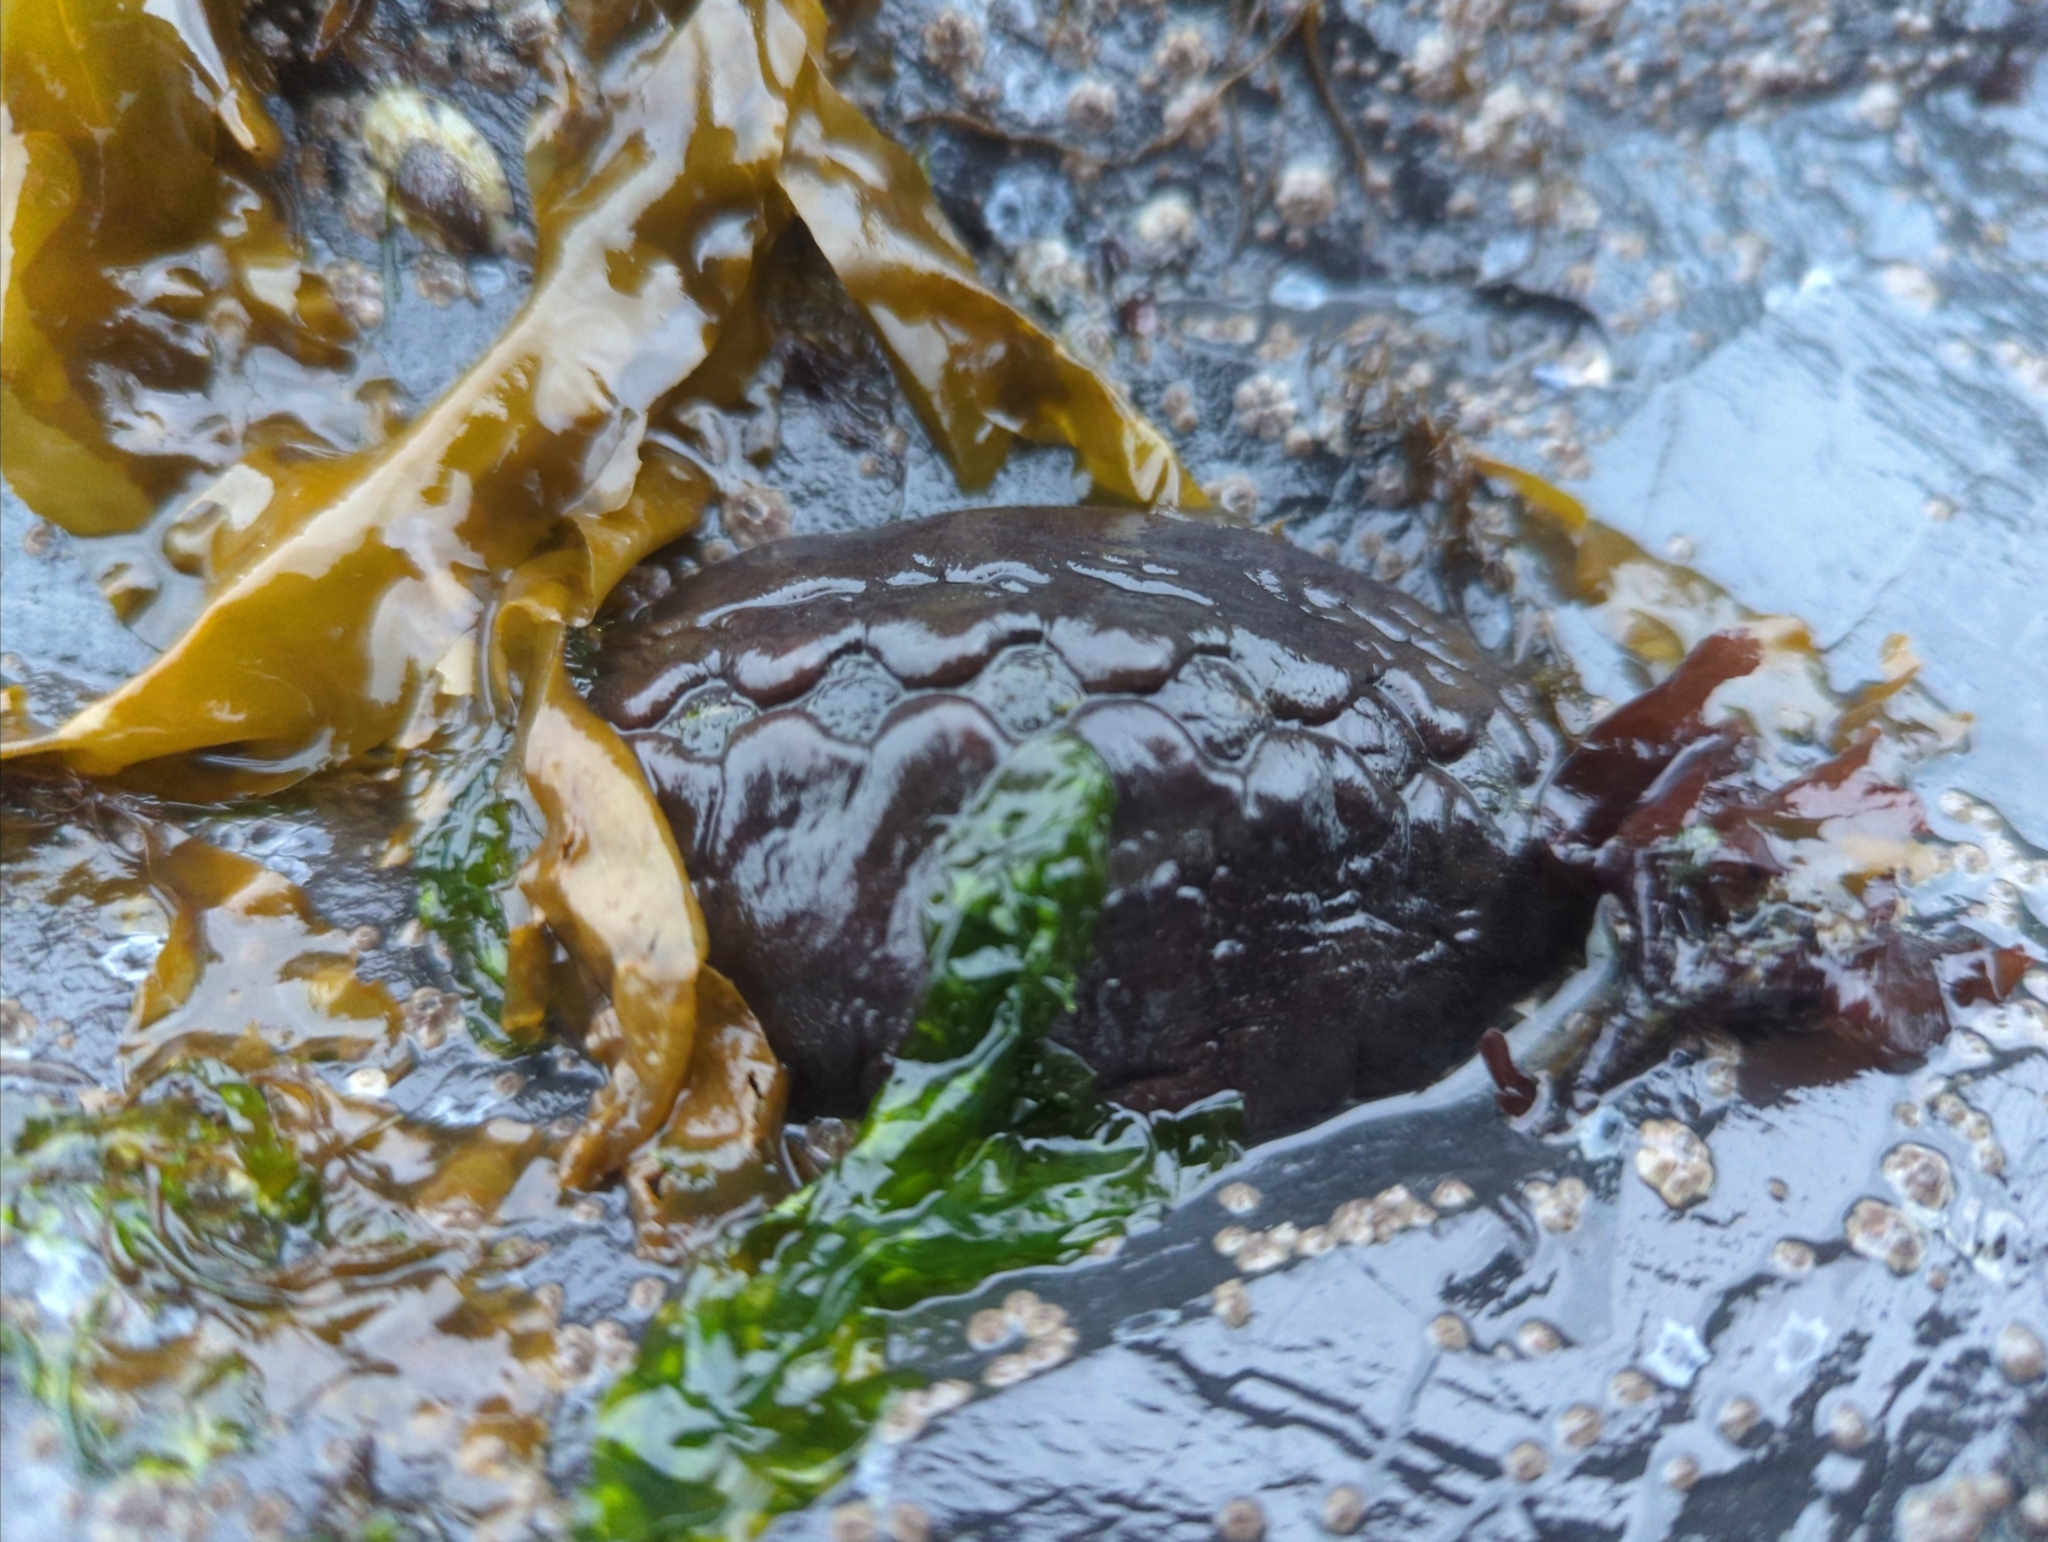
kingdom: Animalia
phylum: Mollusca
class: Polyplacophora
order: Chitonida
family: Mopaliidae
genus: Katharina
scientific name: Katharina tunicata
